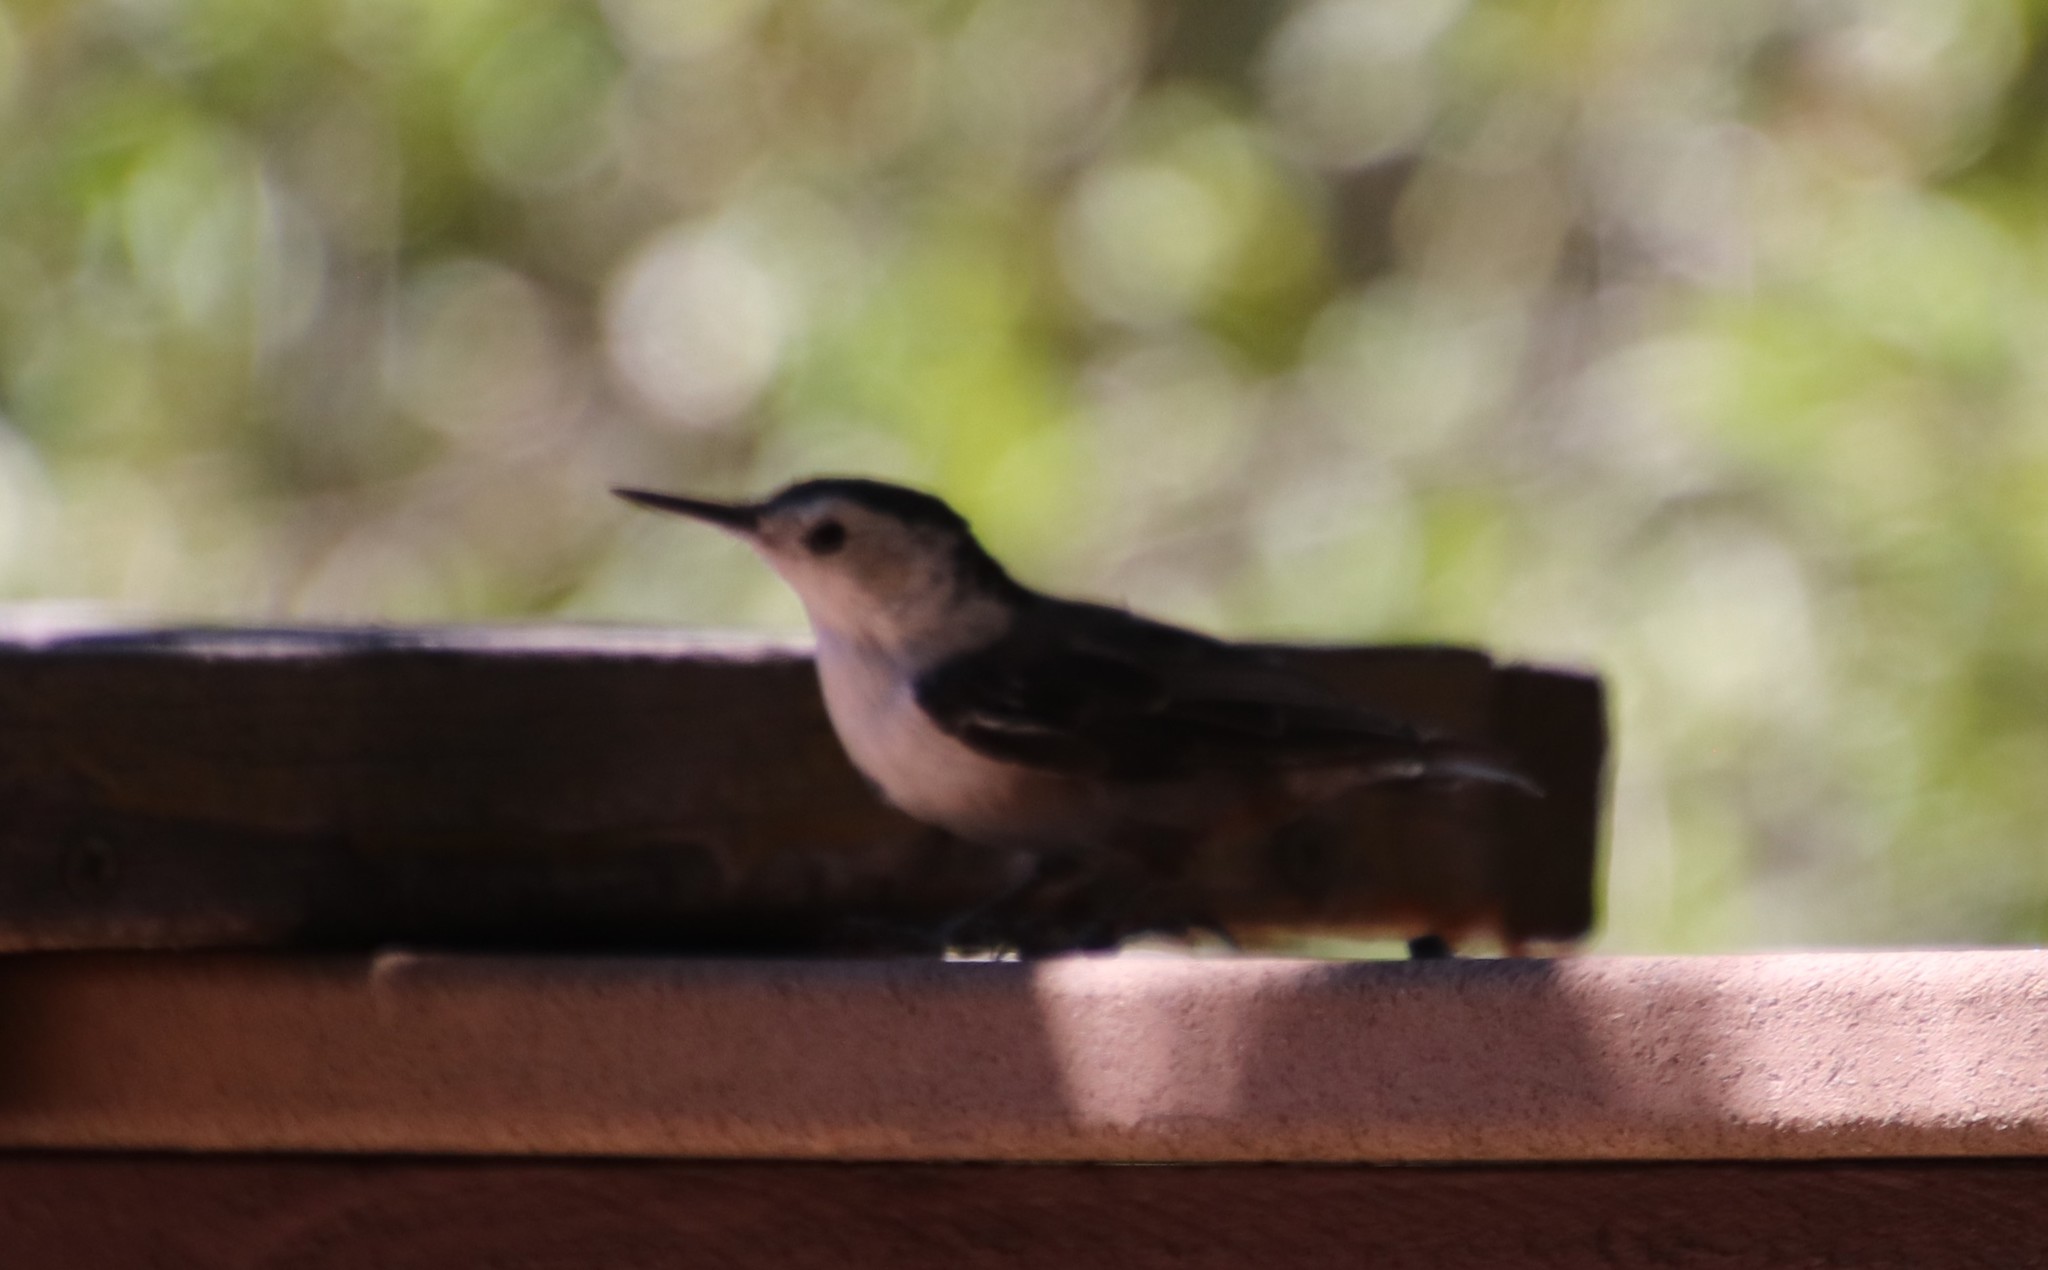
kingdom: Animalia
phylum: Chordata
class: Aves
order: Passeriformes
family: Sittidae
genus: Sitta
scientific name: Sitta carolinensis
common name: White-breasted nuthatch
